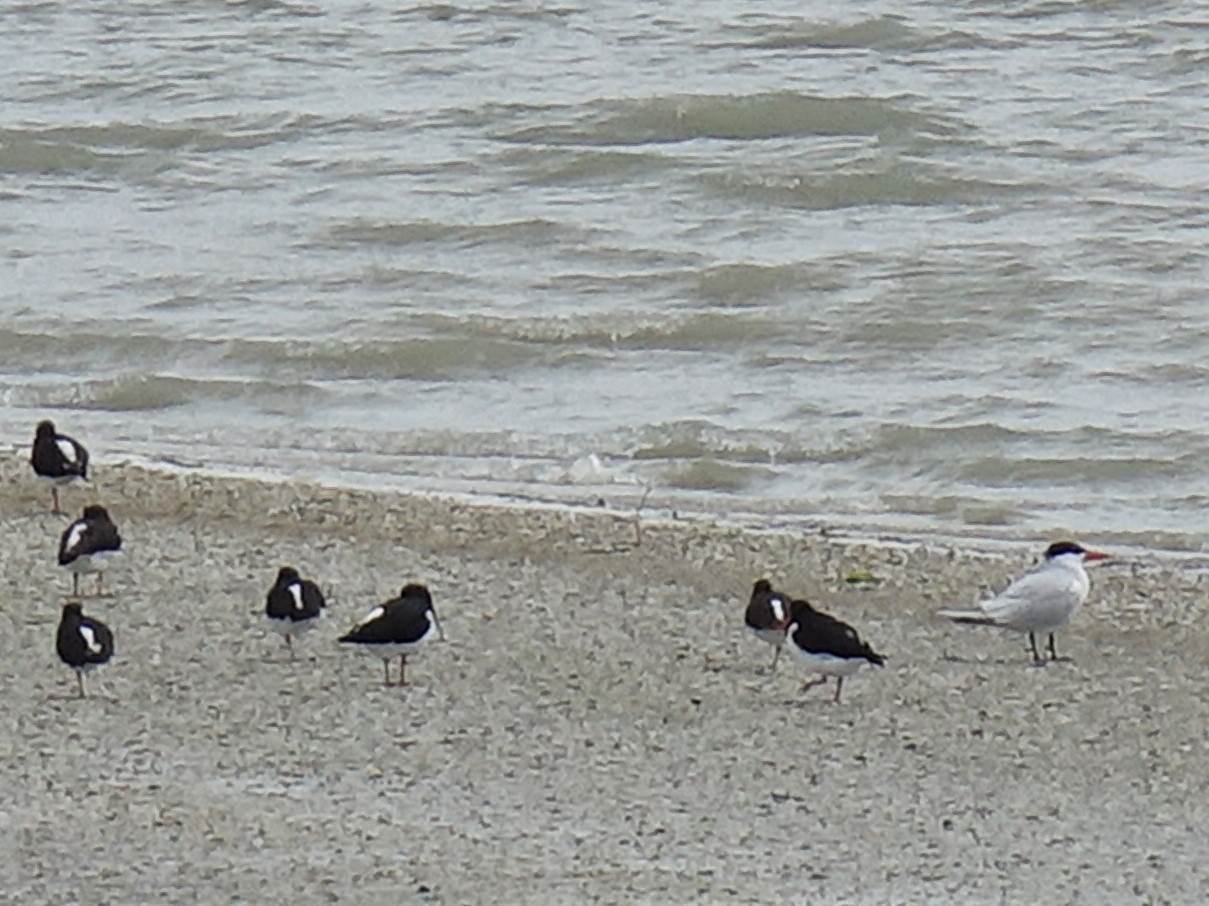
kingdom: Animalia
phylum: Chordata
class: Aves
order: Charadriiformes
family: Laridae
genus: Hydroprogne
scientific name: Hydroprogne caspia
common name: Caspian tern
